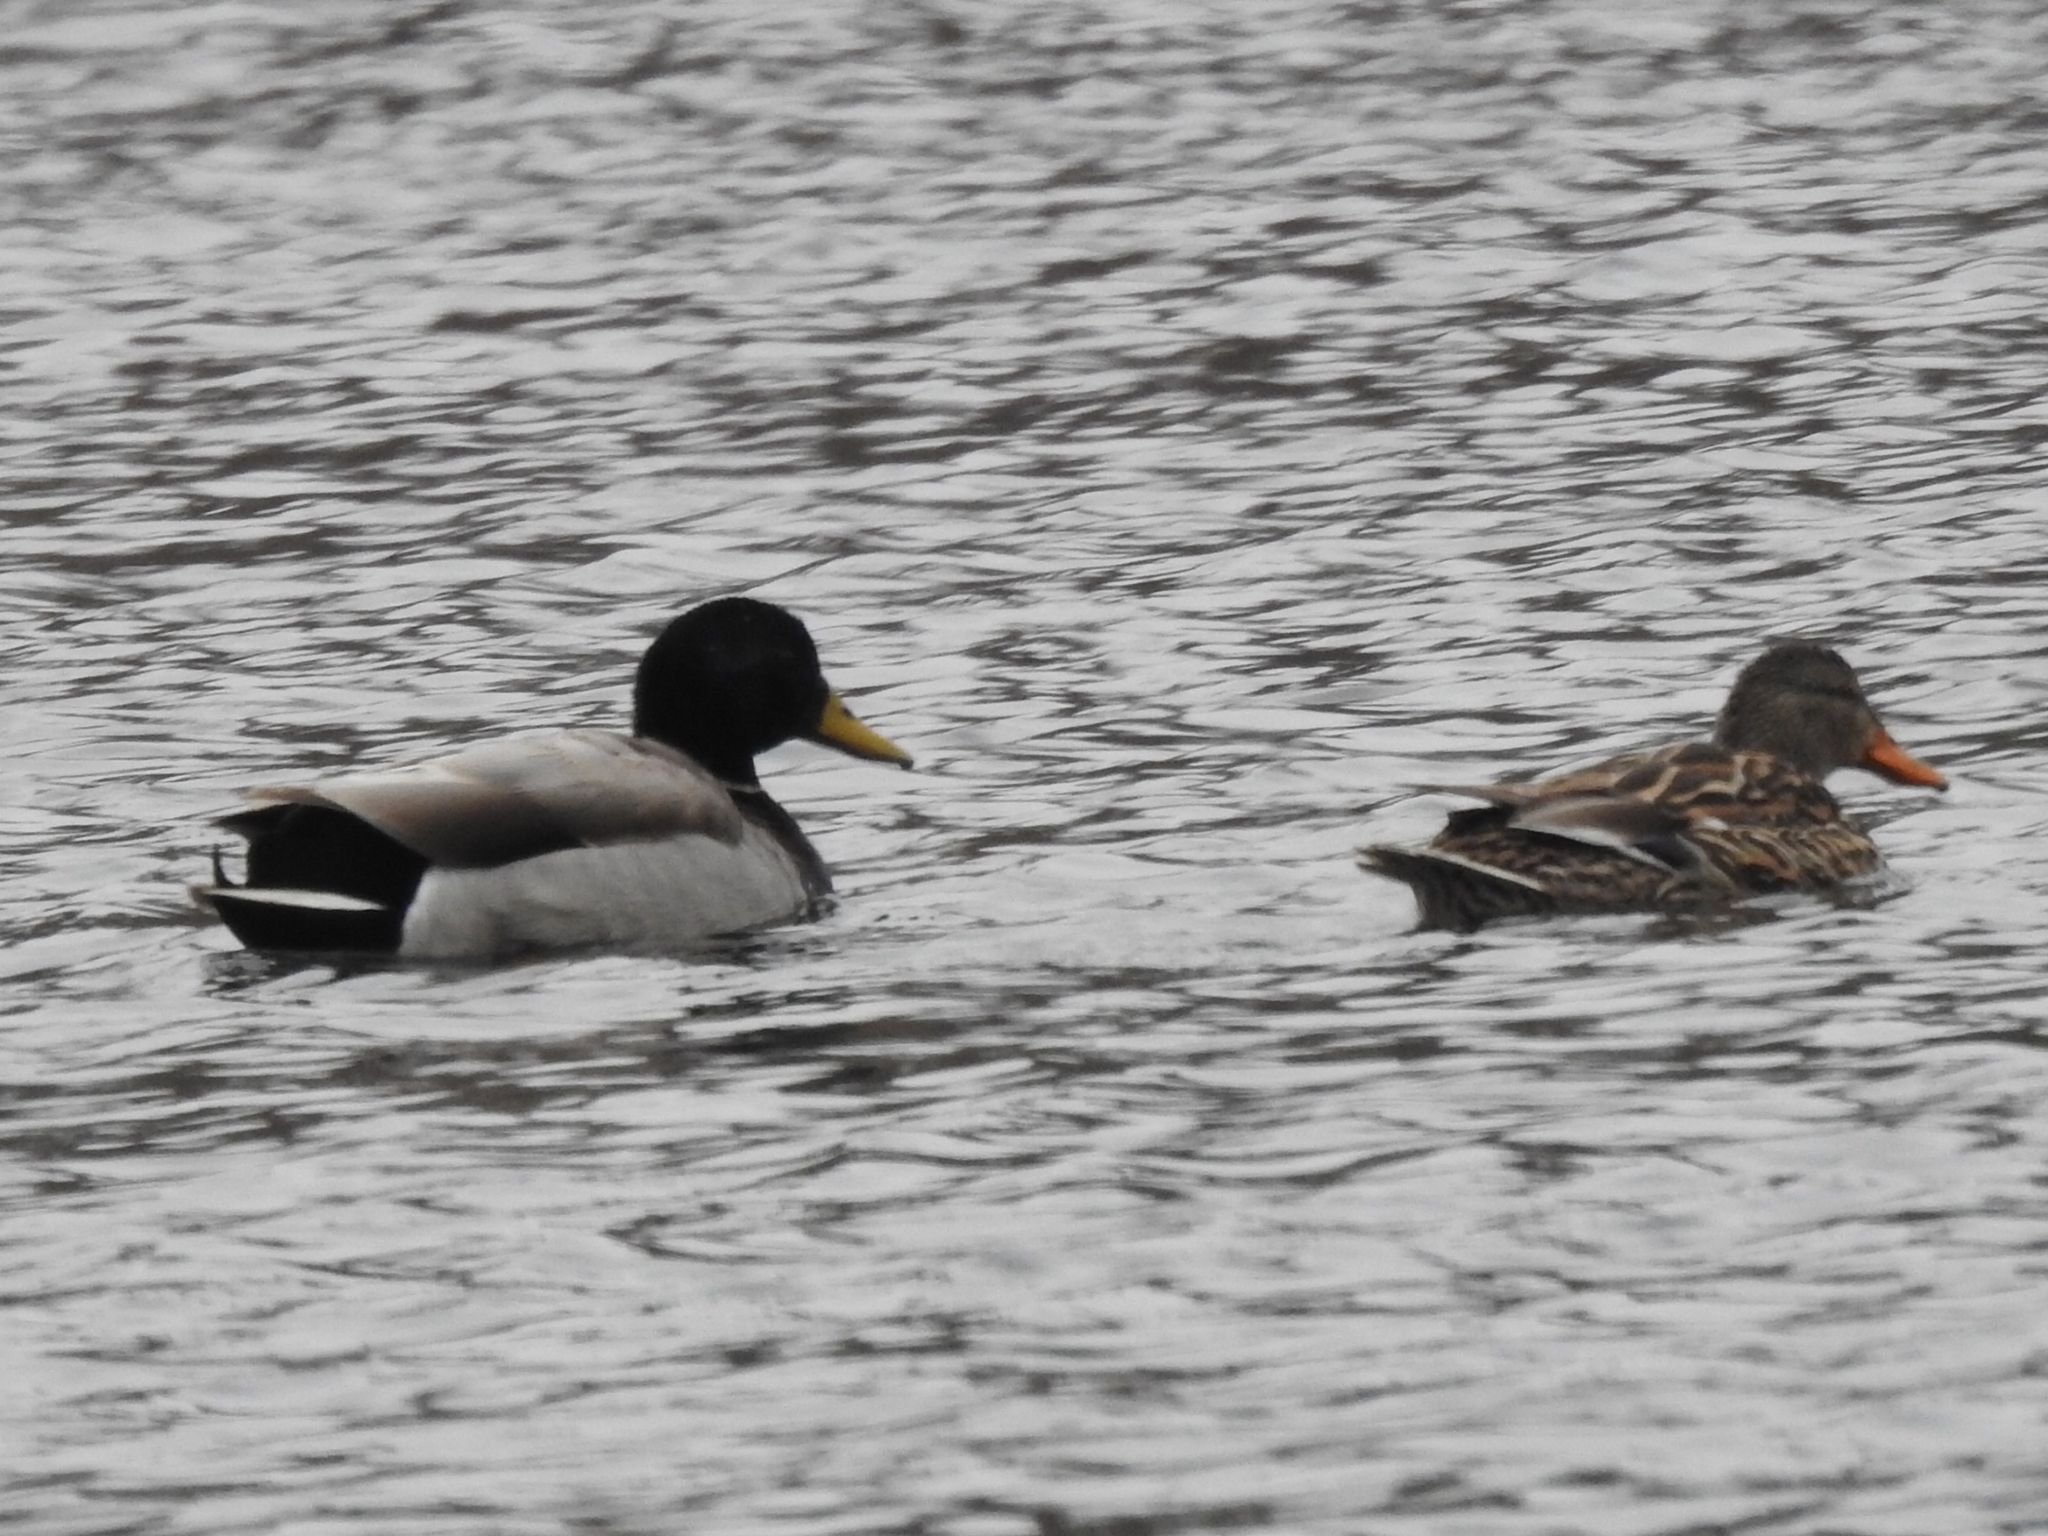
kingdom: Animalia
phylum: Chordata
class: Aves
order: Anseriformes
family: Anatidae
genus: Anas
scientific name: Anas platyrhynchos
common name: Mallard
